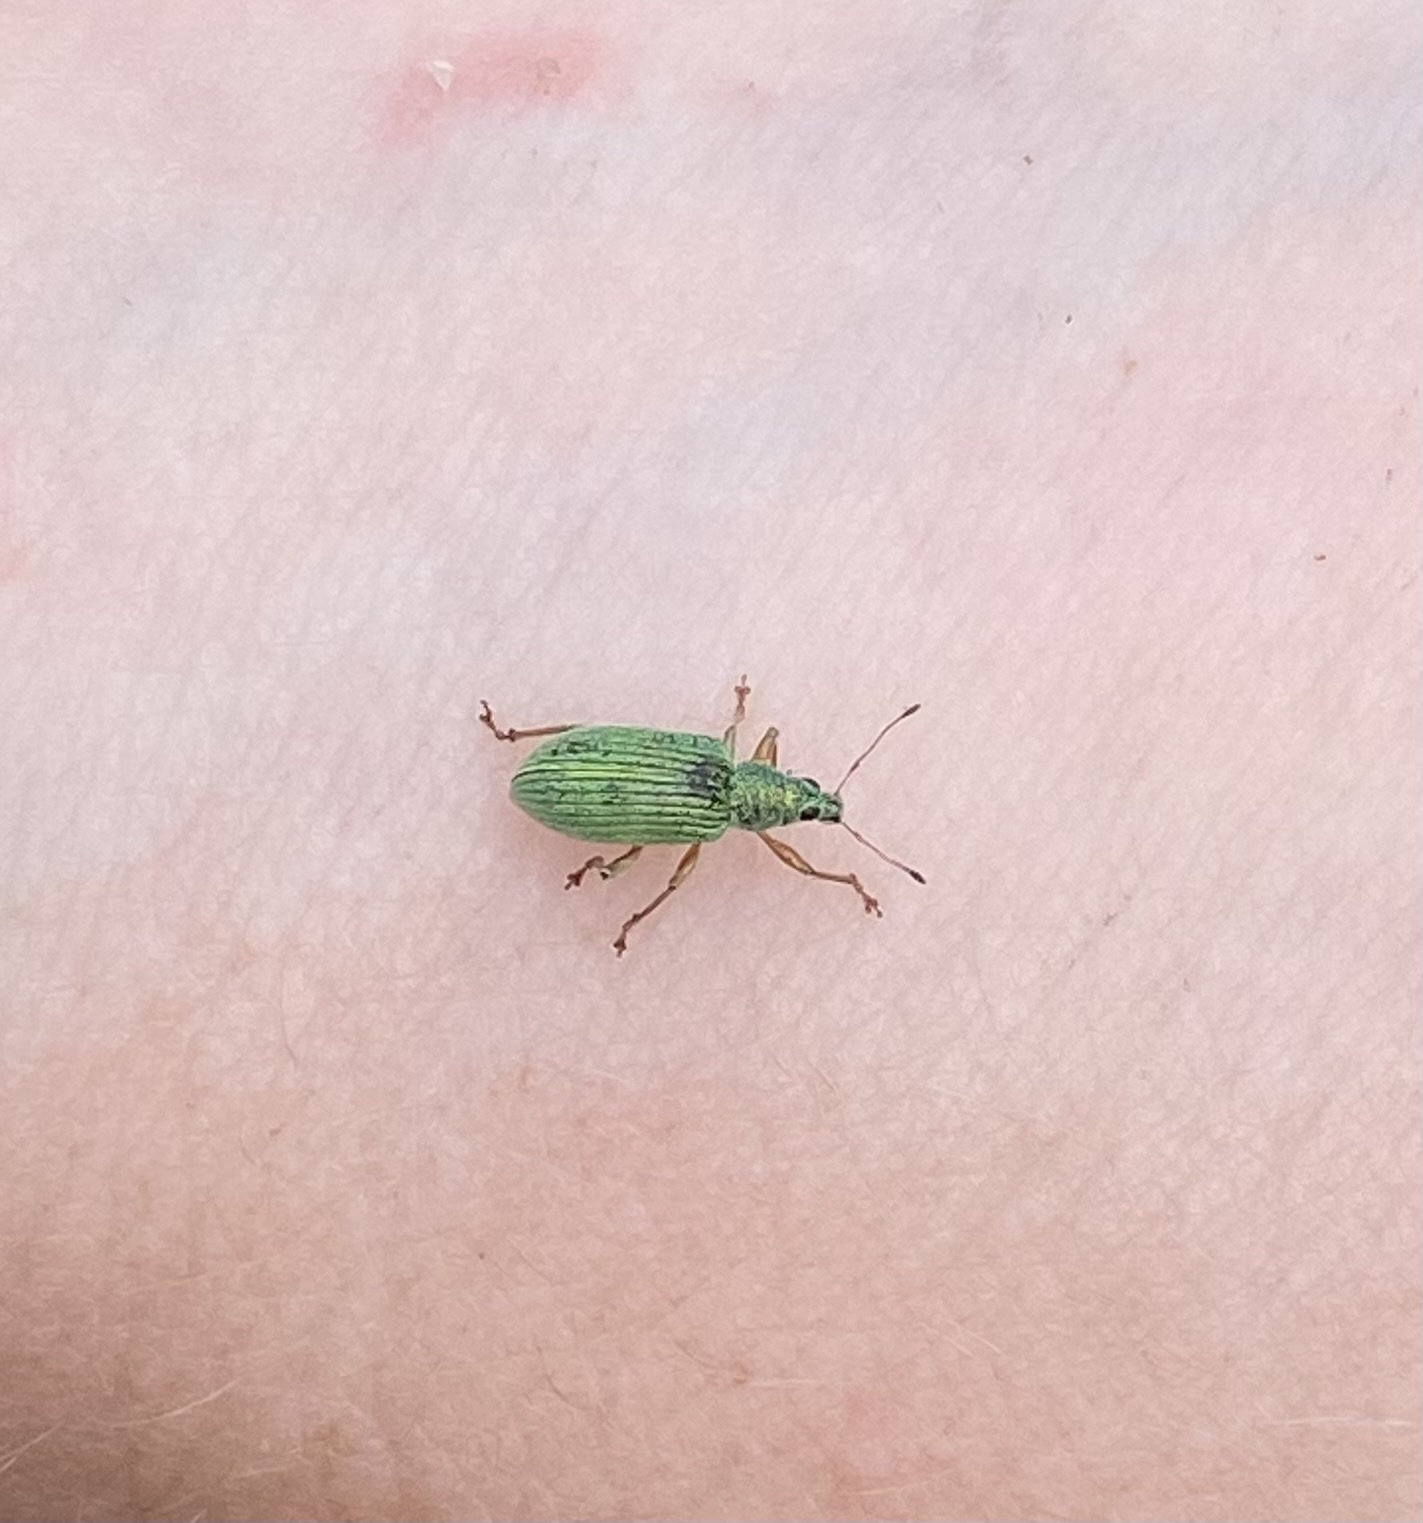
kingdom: Animalia
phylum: Arthropoda
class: Insecta
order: Coleoptera
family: Curculionidae
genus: Polydrusus
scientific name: Polydrusus formosus
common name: Weevil
